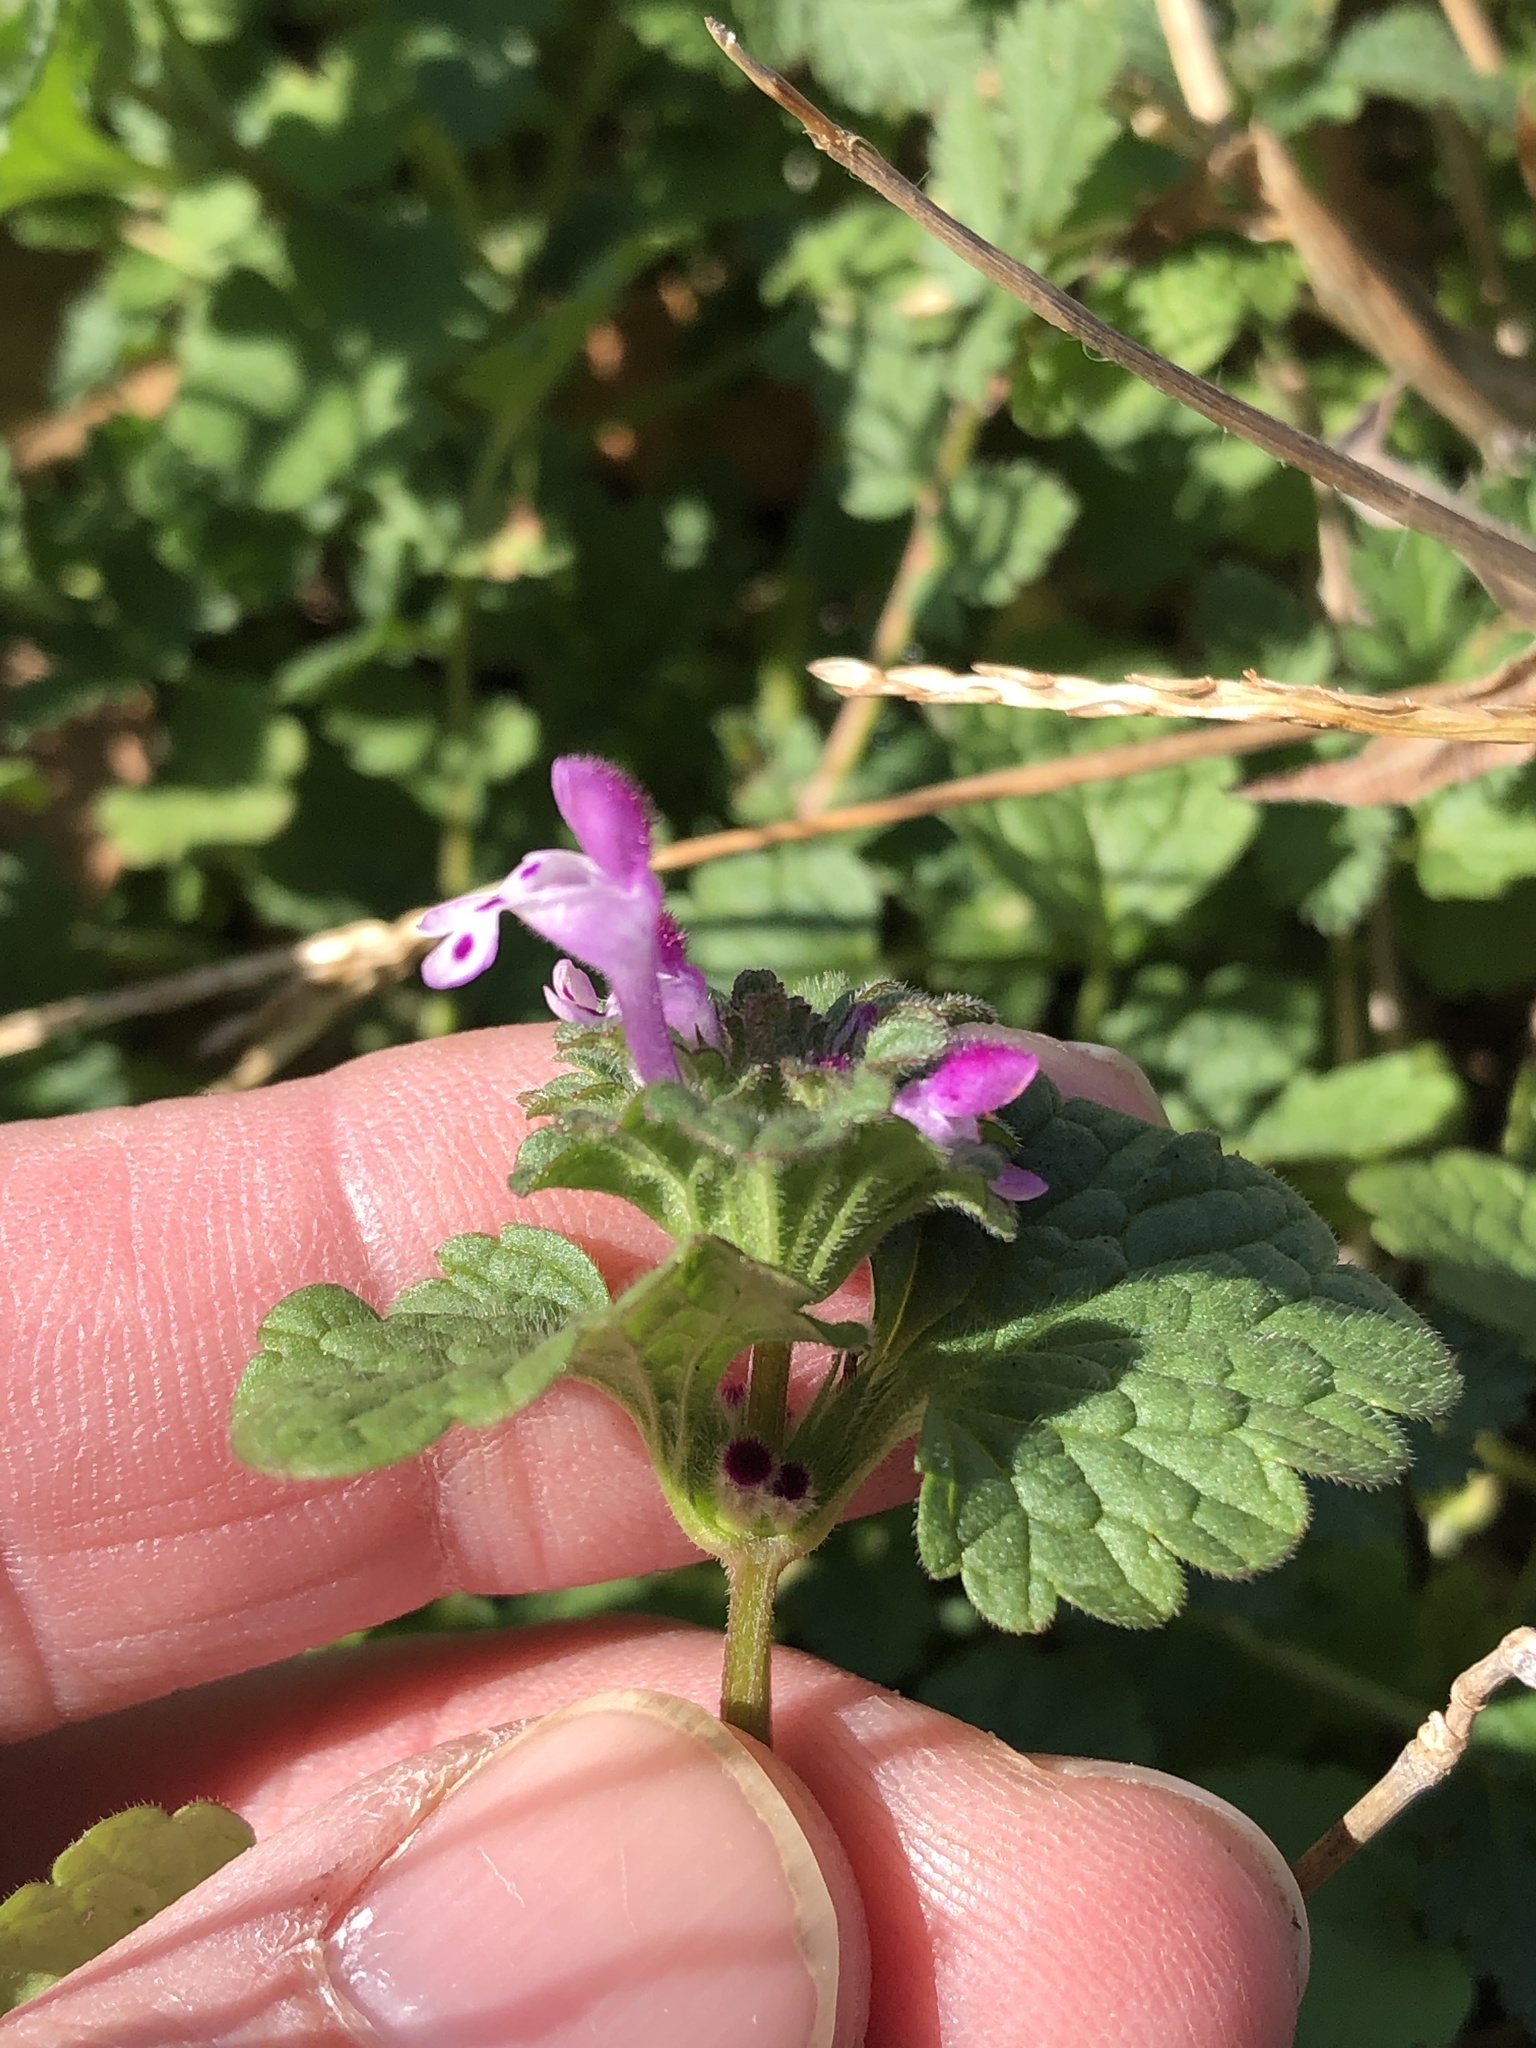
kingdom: Plantae
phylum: Tracheophyta
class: Magnoliopsida
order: Lamiales
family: Lamiaceae
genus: Lamium
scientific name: Lamium amplexicaule
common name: Henbit dead-nettle
